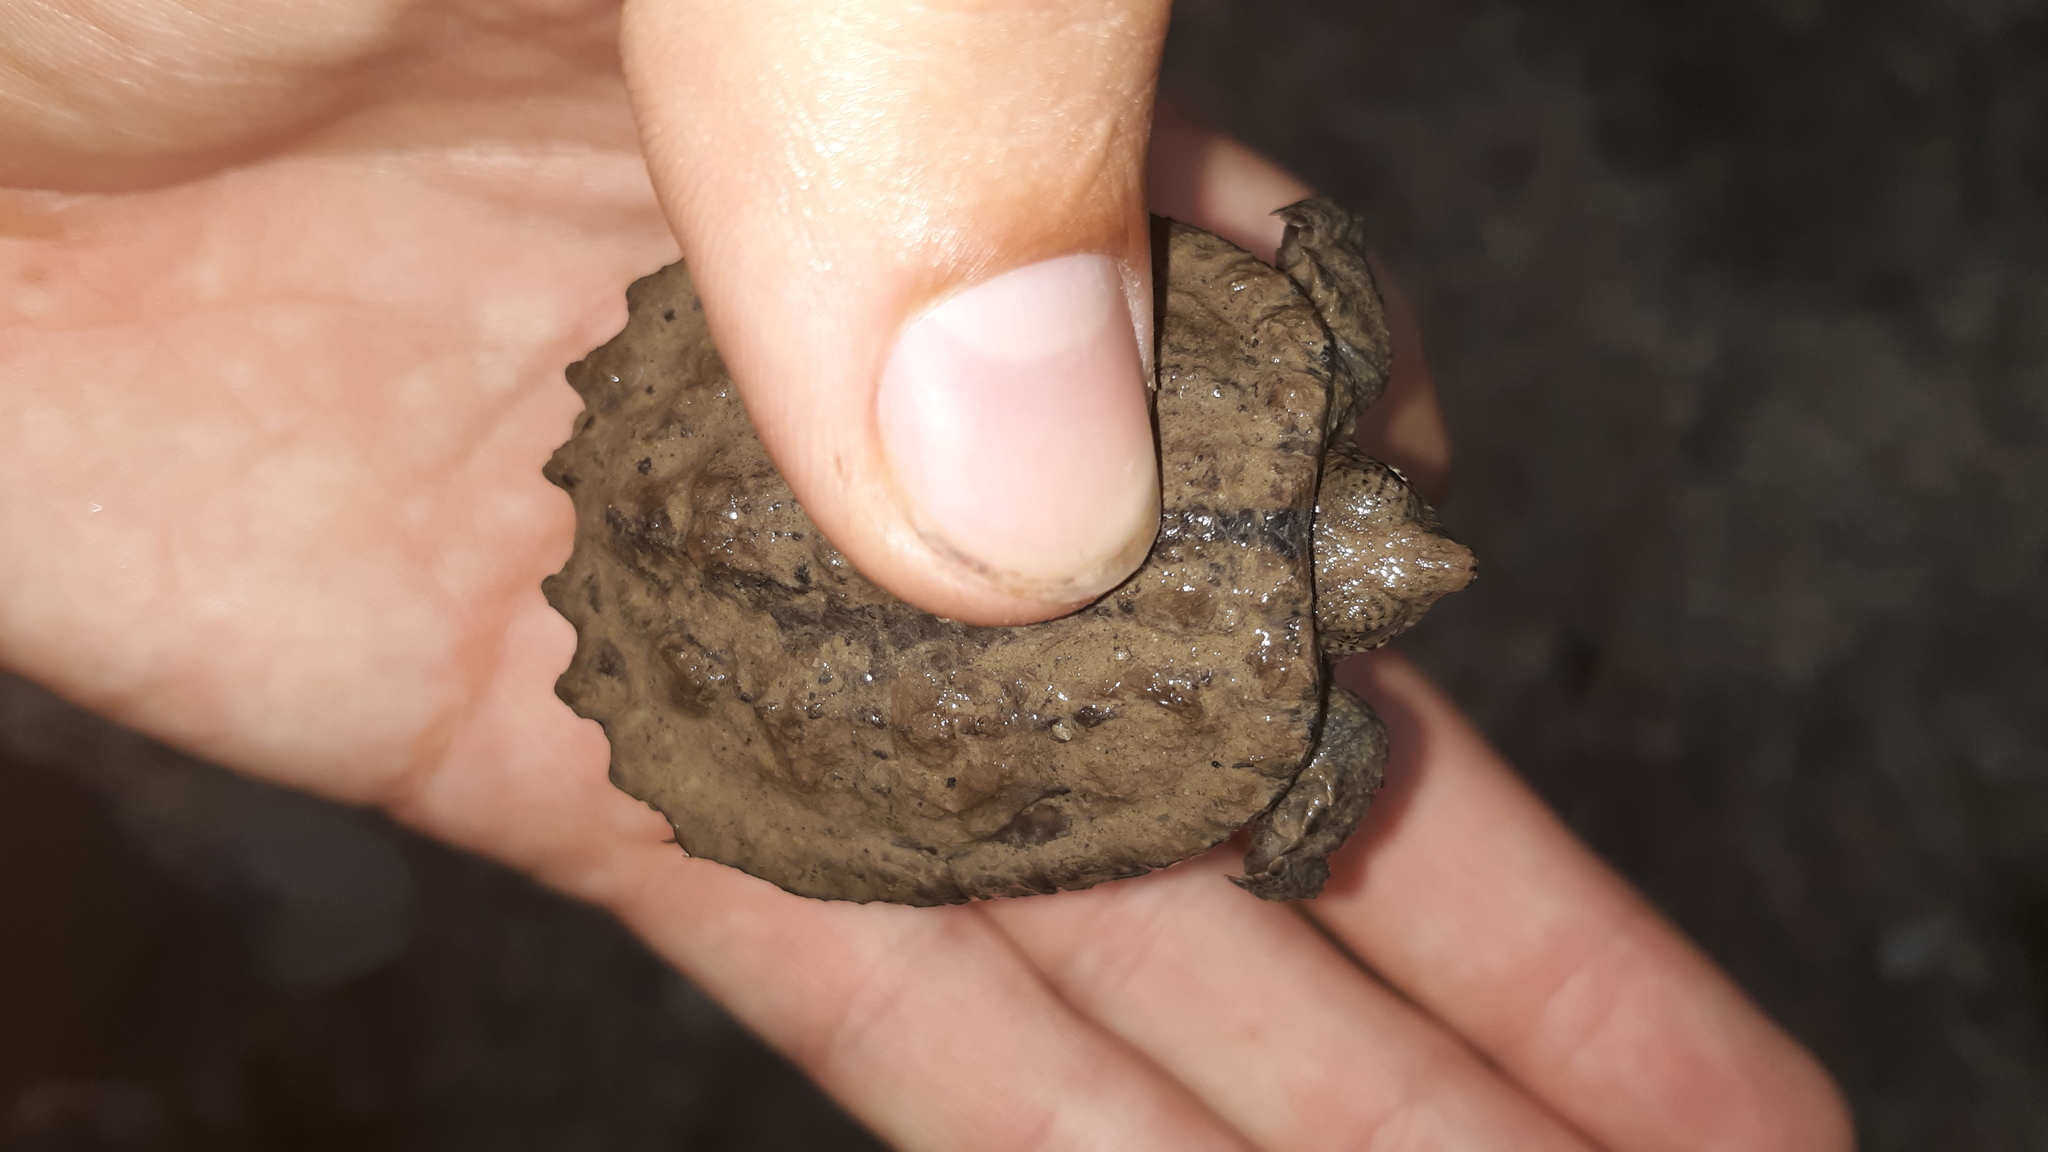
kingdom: Animalia
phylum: Chordata
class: Testudines
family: Chelydridae
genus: Chelydra
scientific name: Chelydra serpentina
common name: Common snapping turtle
